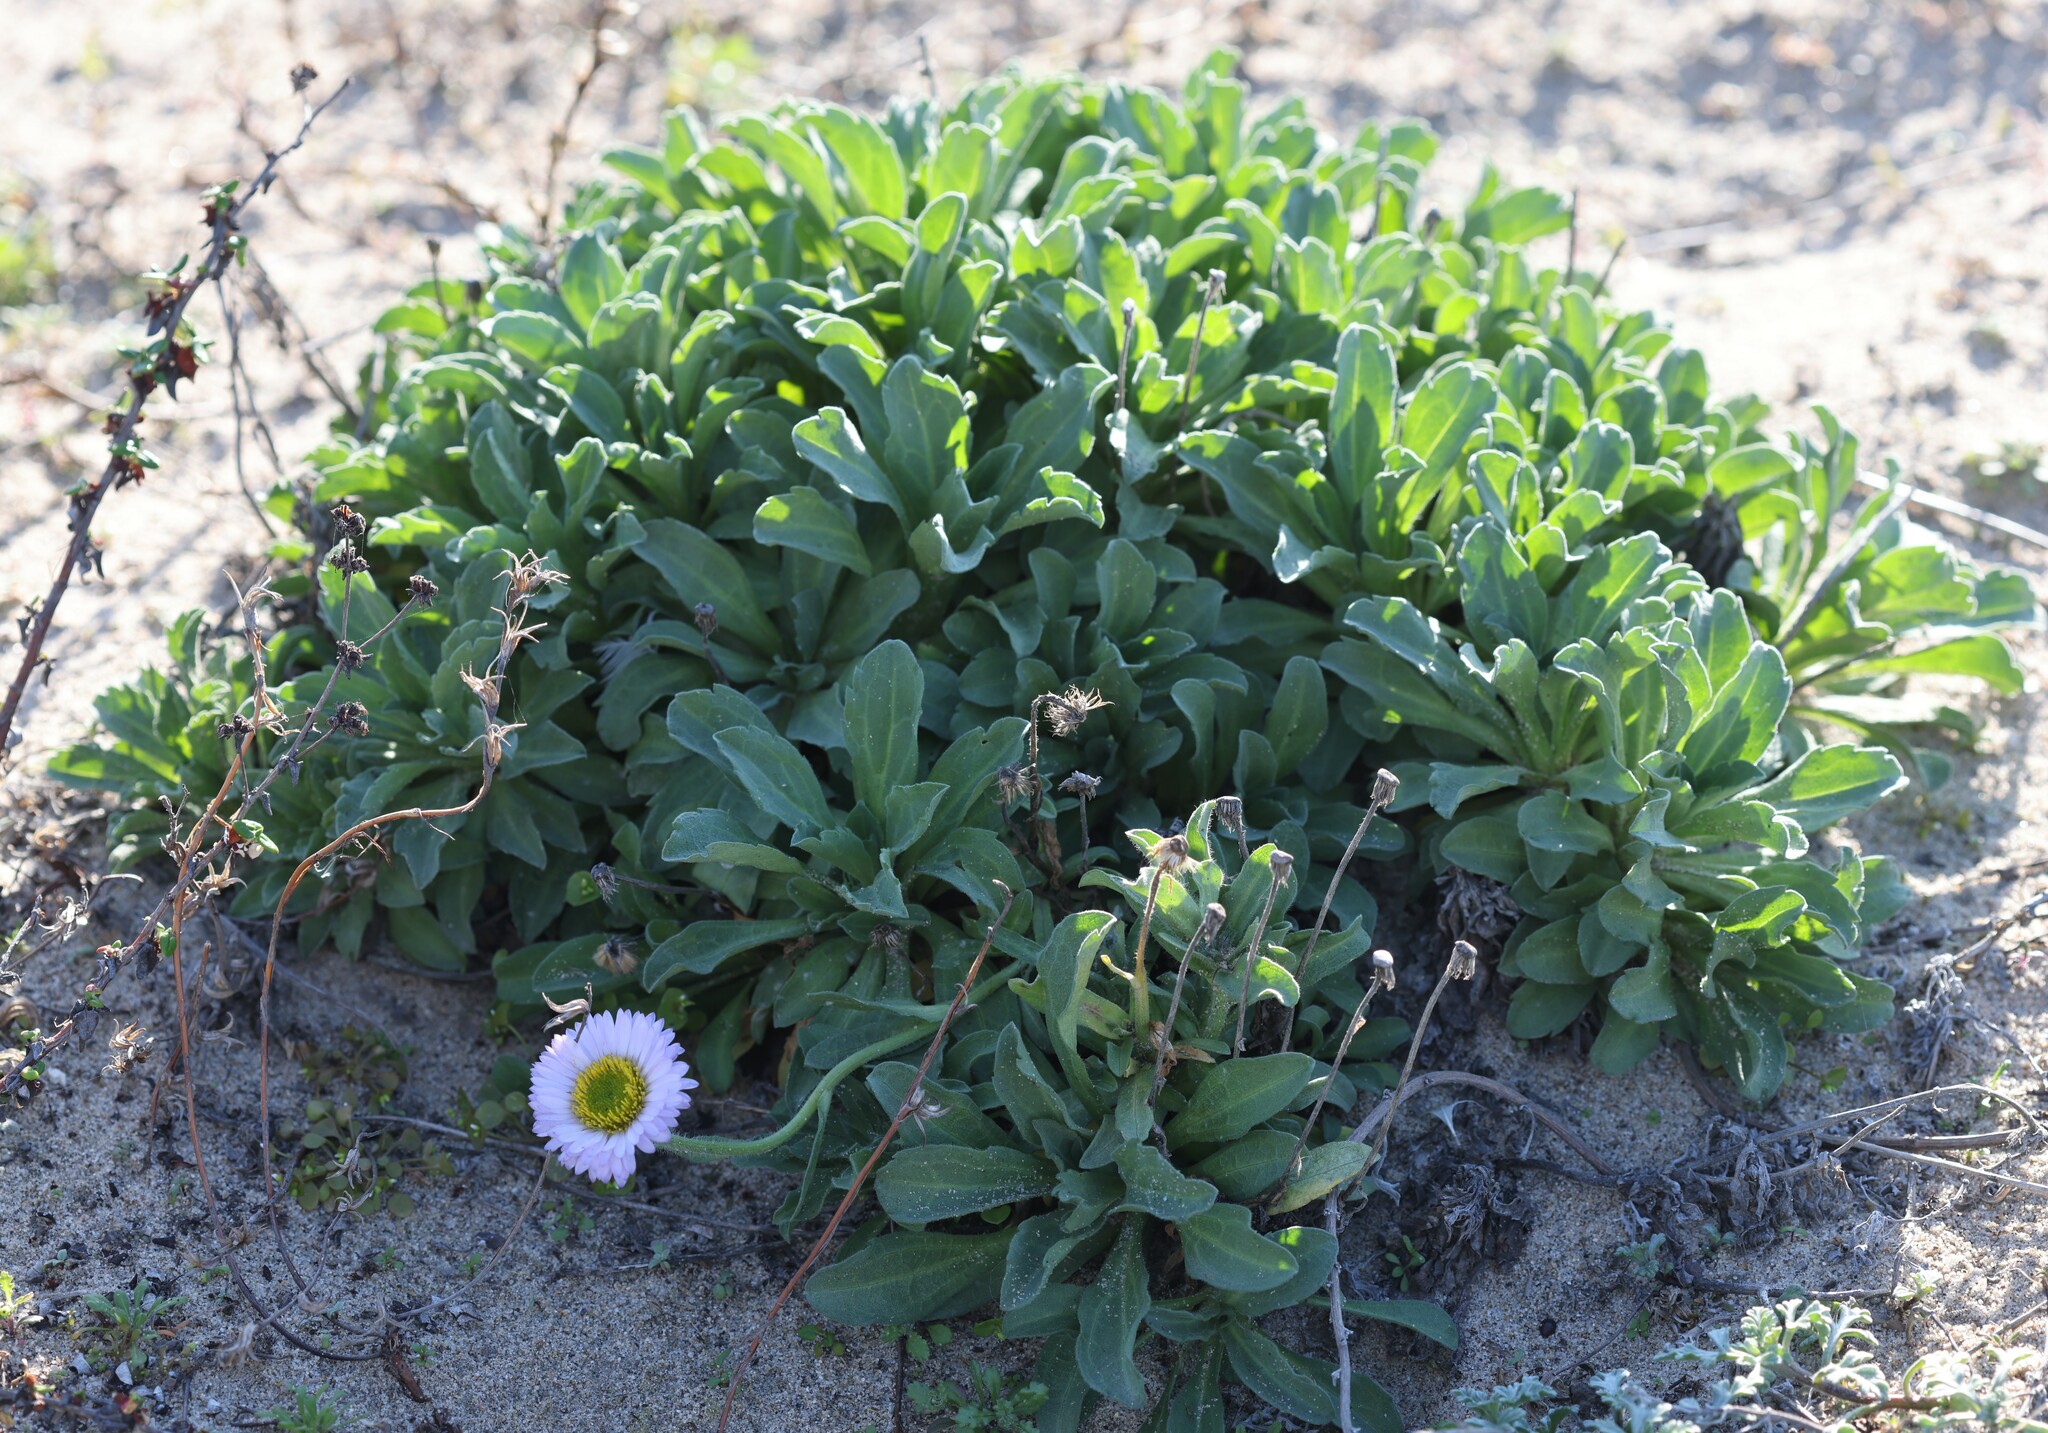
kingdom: Plantae
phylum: Tracheophyta
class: Magnoliopsida
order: Asterales
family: Asteraceae
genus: Erigeron
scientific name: Erigeron glaucus
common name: Seaside daisy
